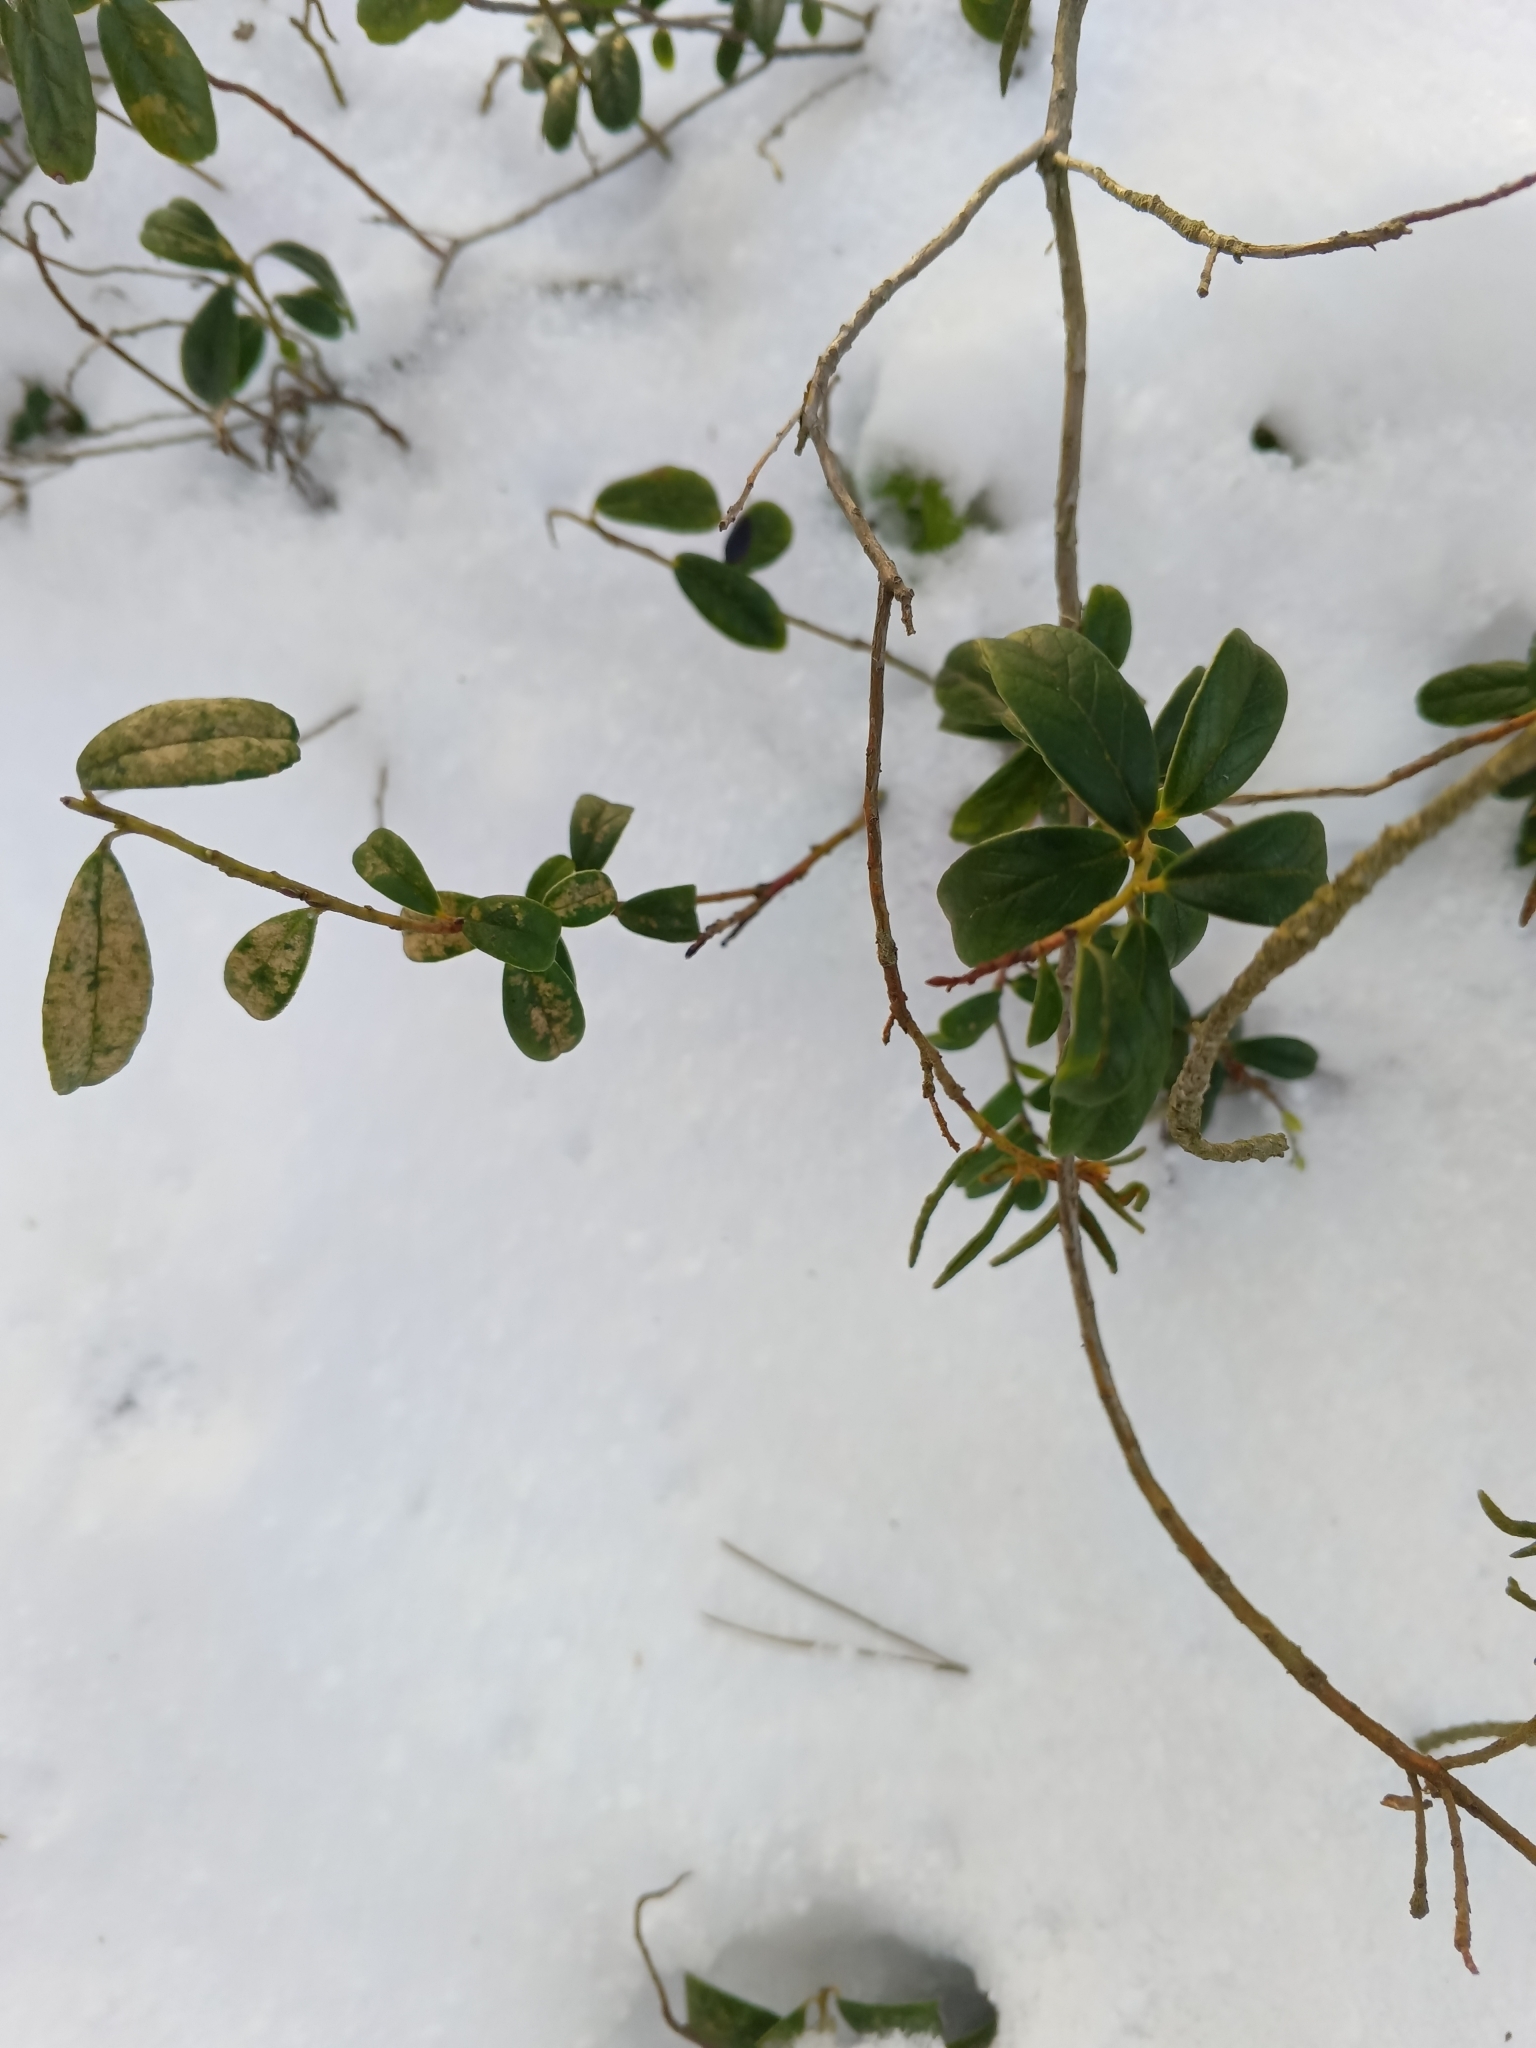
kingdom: Plantae
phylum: Tracheophyta
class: Magnoliopsida
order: Ericales
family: Ericaceae
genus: Vaccinium
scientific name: Vaccinium vitis-idaea
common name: Cowberry
